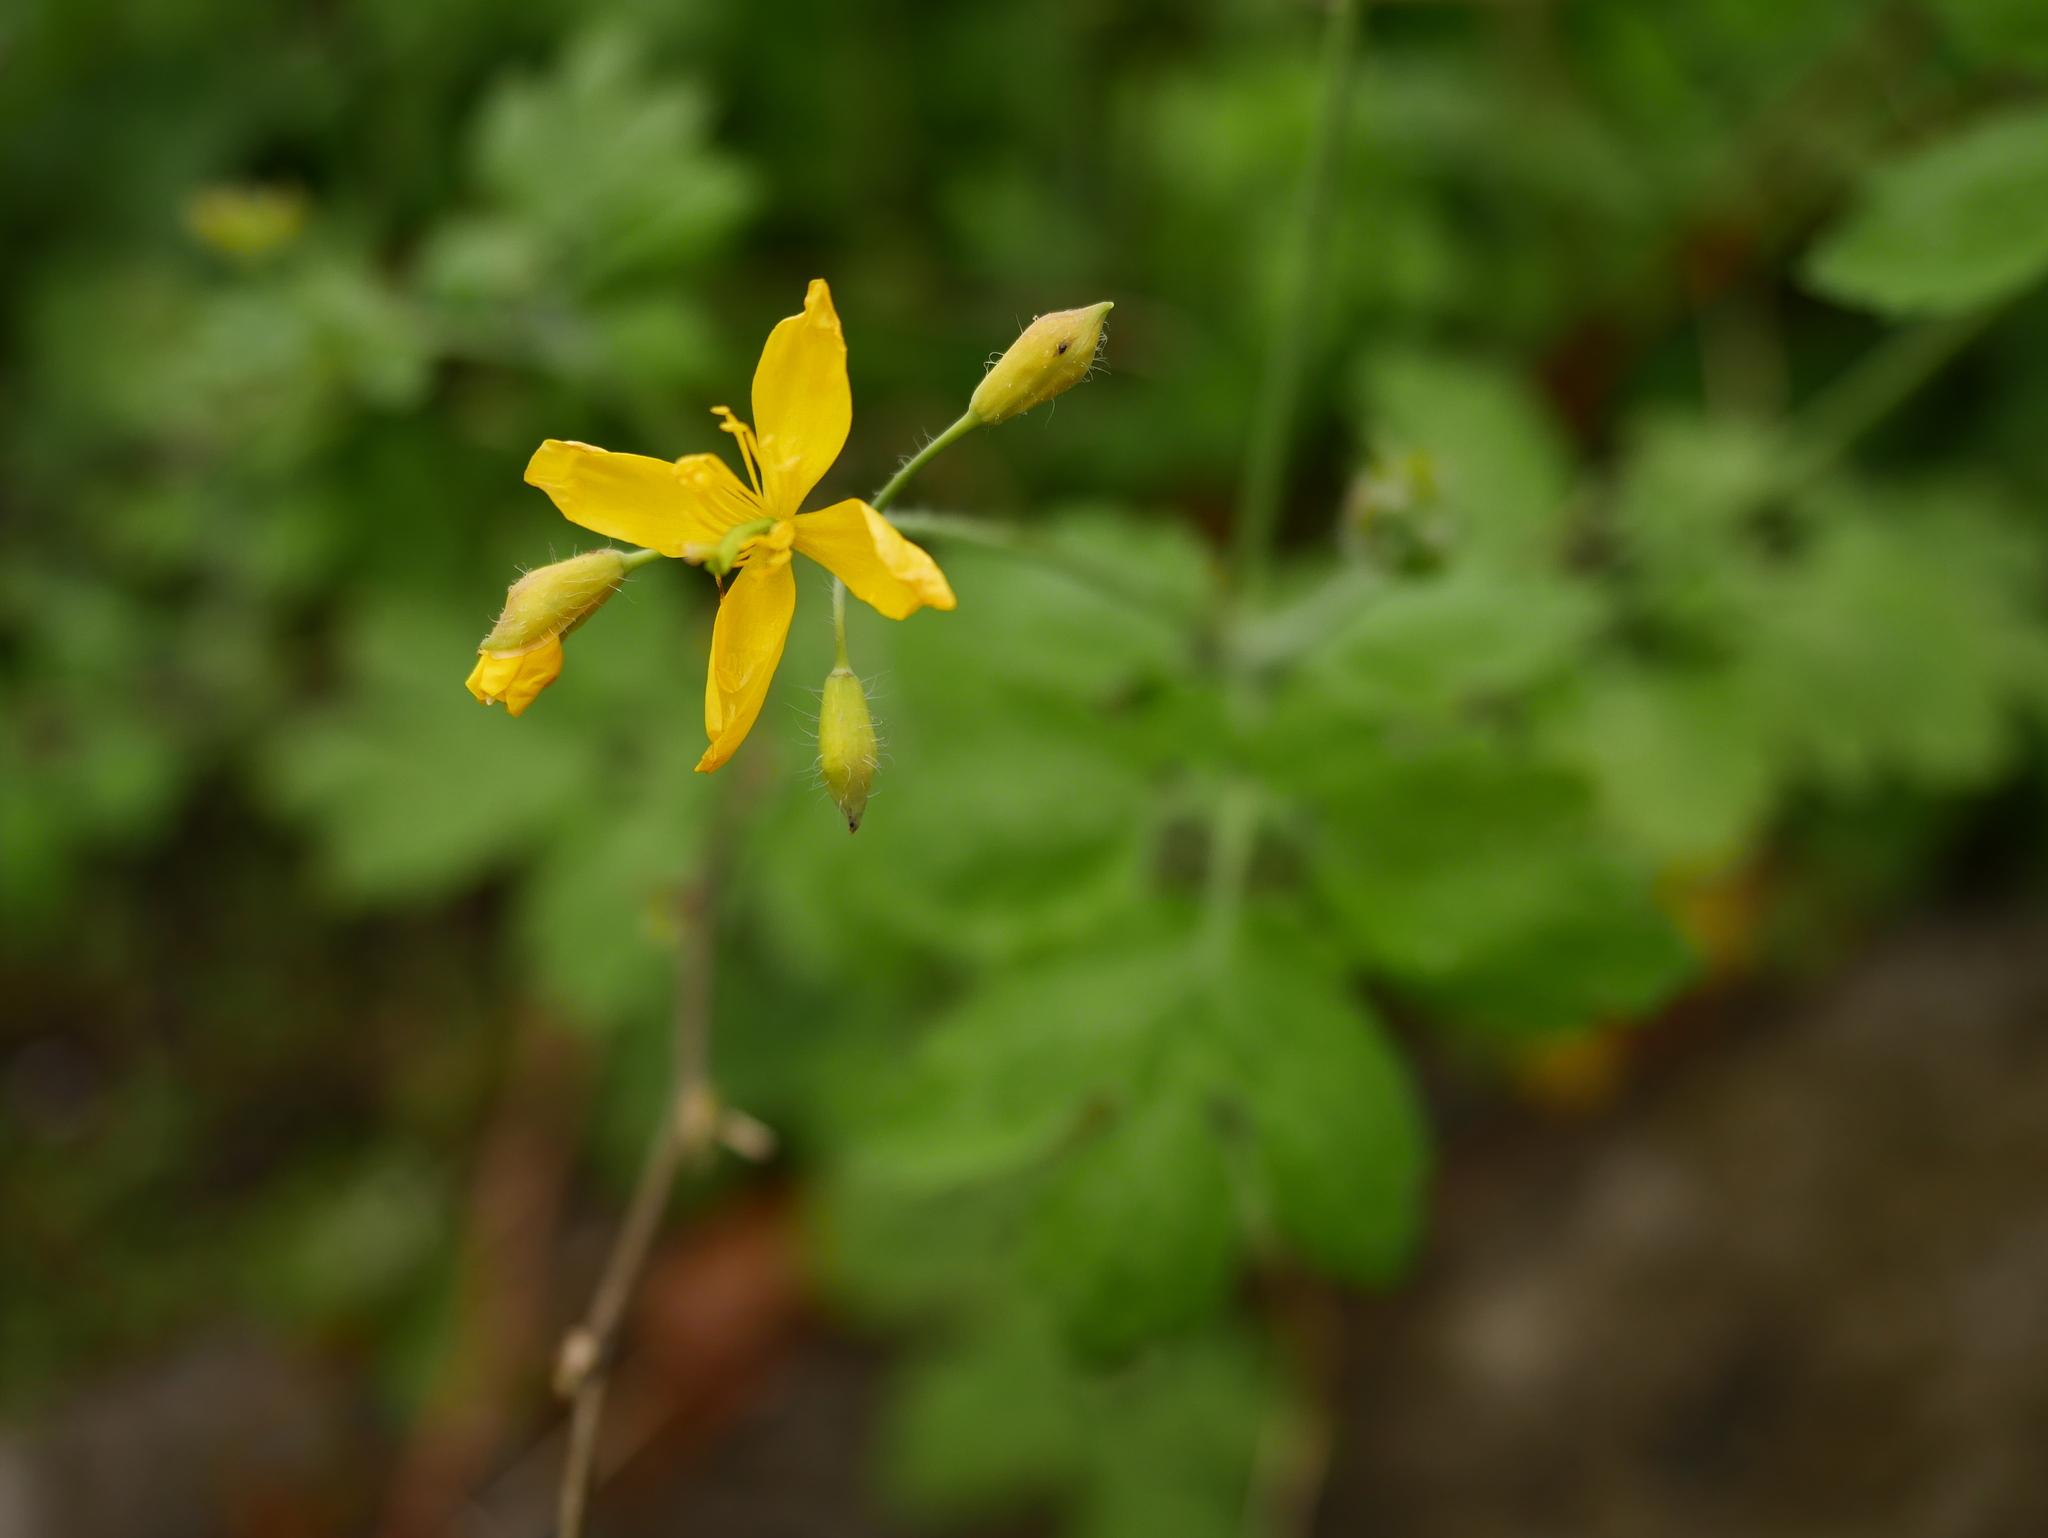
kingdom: Plantae
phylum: Tracheophyta
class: Magnoliopsida
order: Ranunculales
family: Papaveraceae
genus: Chelidonium
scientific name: Chelidonium majus
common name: Greater celandine
